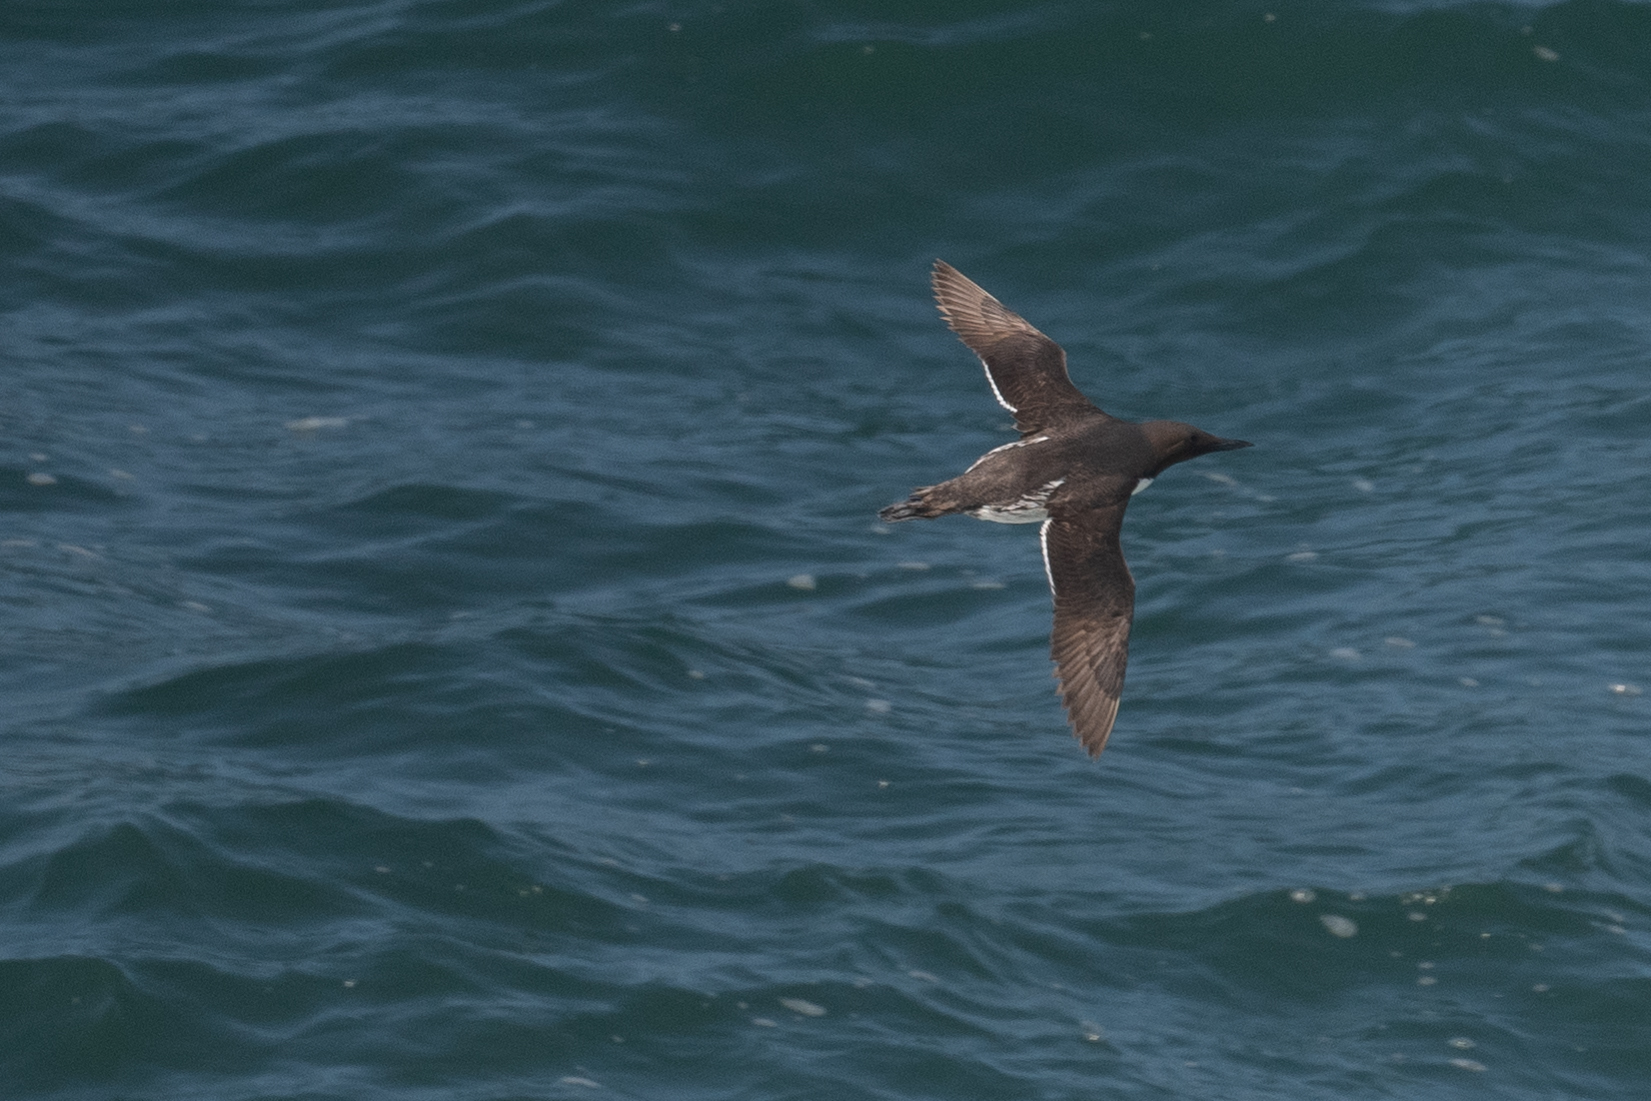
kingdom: Animalia
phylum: Chordata
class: Aves
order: Charadriiformes
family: Alcidae
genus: Uria
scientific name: Uria aalge
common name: Common murre
